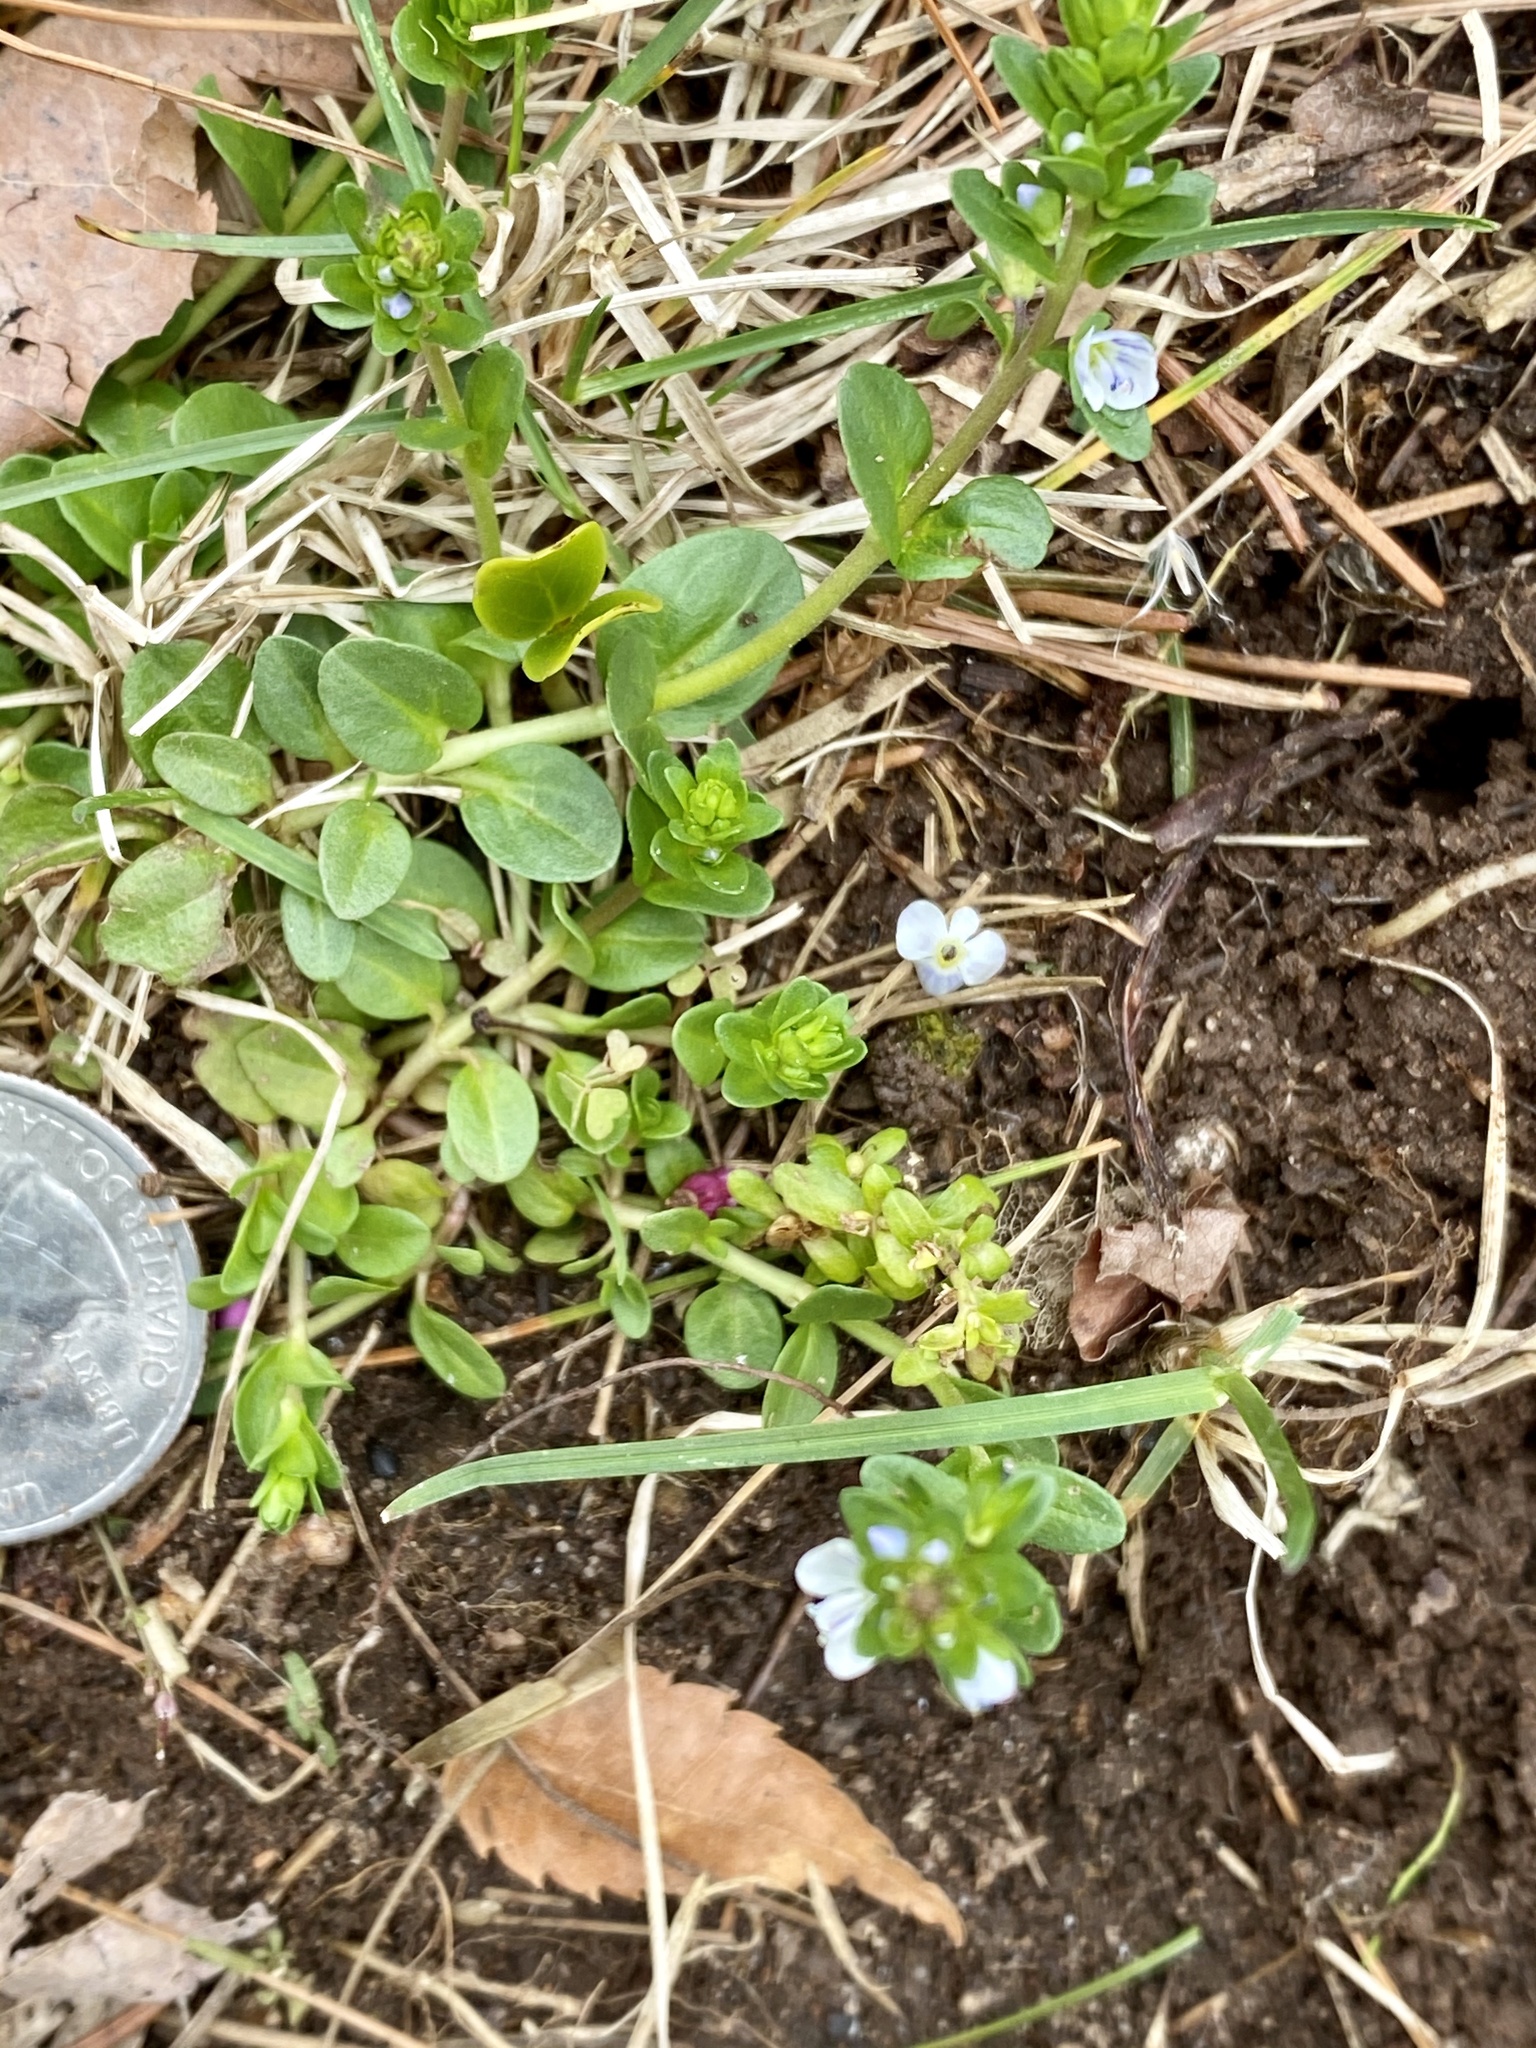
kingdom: Plantae
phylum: Tracheophyta
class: Magnoliopsida
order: Lamiales
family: Plantaginaceae
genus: Veronica
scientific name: Veronica serpyllifolia
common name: Thyme-leaved speedwell
